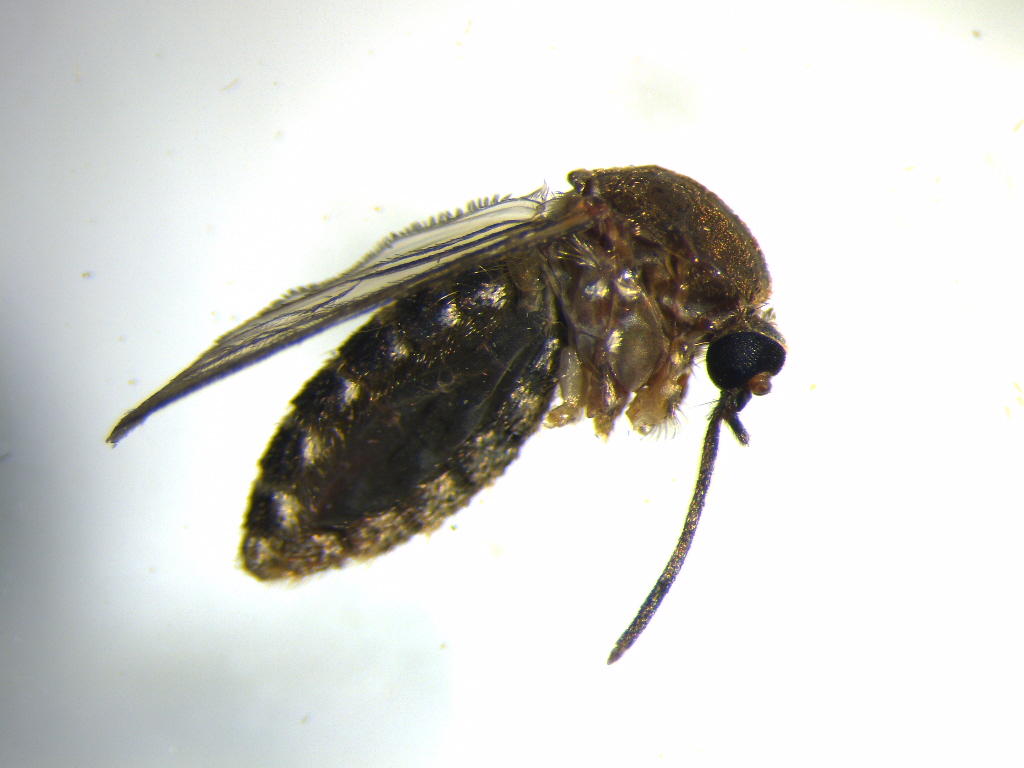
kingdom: Animalia
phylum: Arthropoda
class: Insecta
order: Diptera
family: Culicidae
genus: Culex
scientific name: Culex quinquefasciatus
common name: Southern house mosquito
